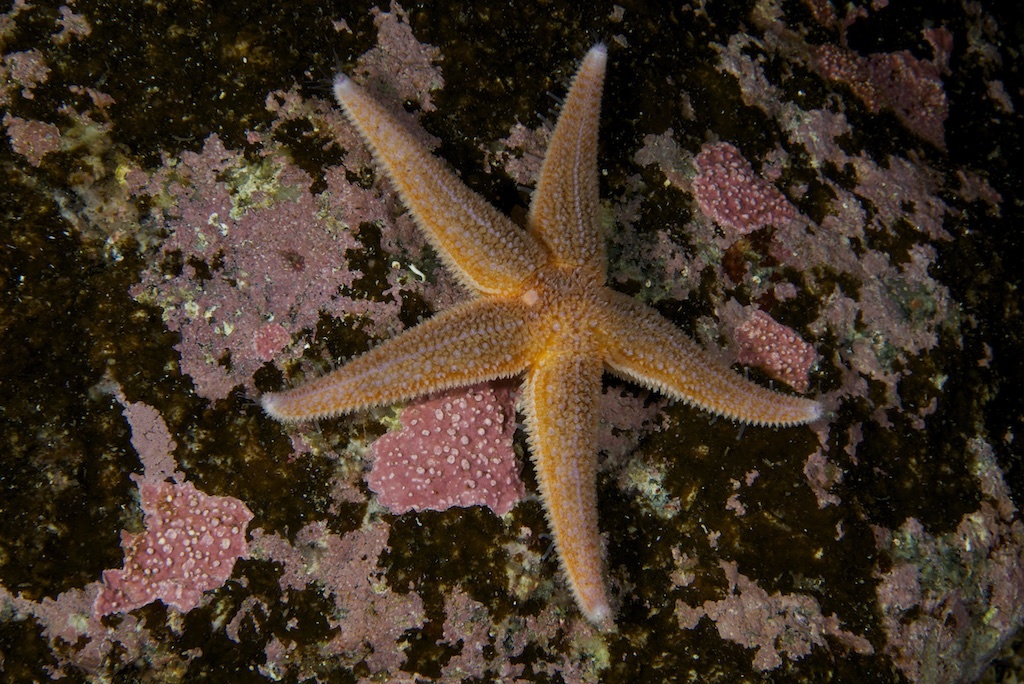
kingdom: Animalia
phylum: Echinodermata
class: Asteroidea
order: Forcipulatida
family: Asteriidae
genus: Asterias
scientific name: Asterias rubens
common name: Common starfish
